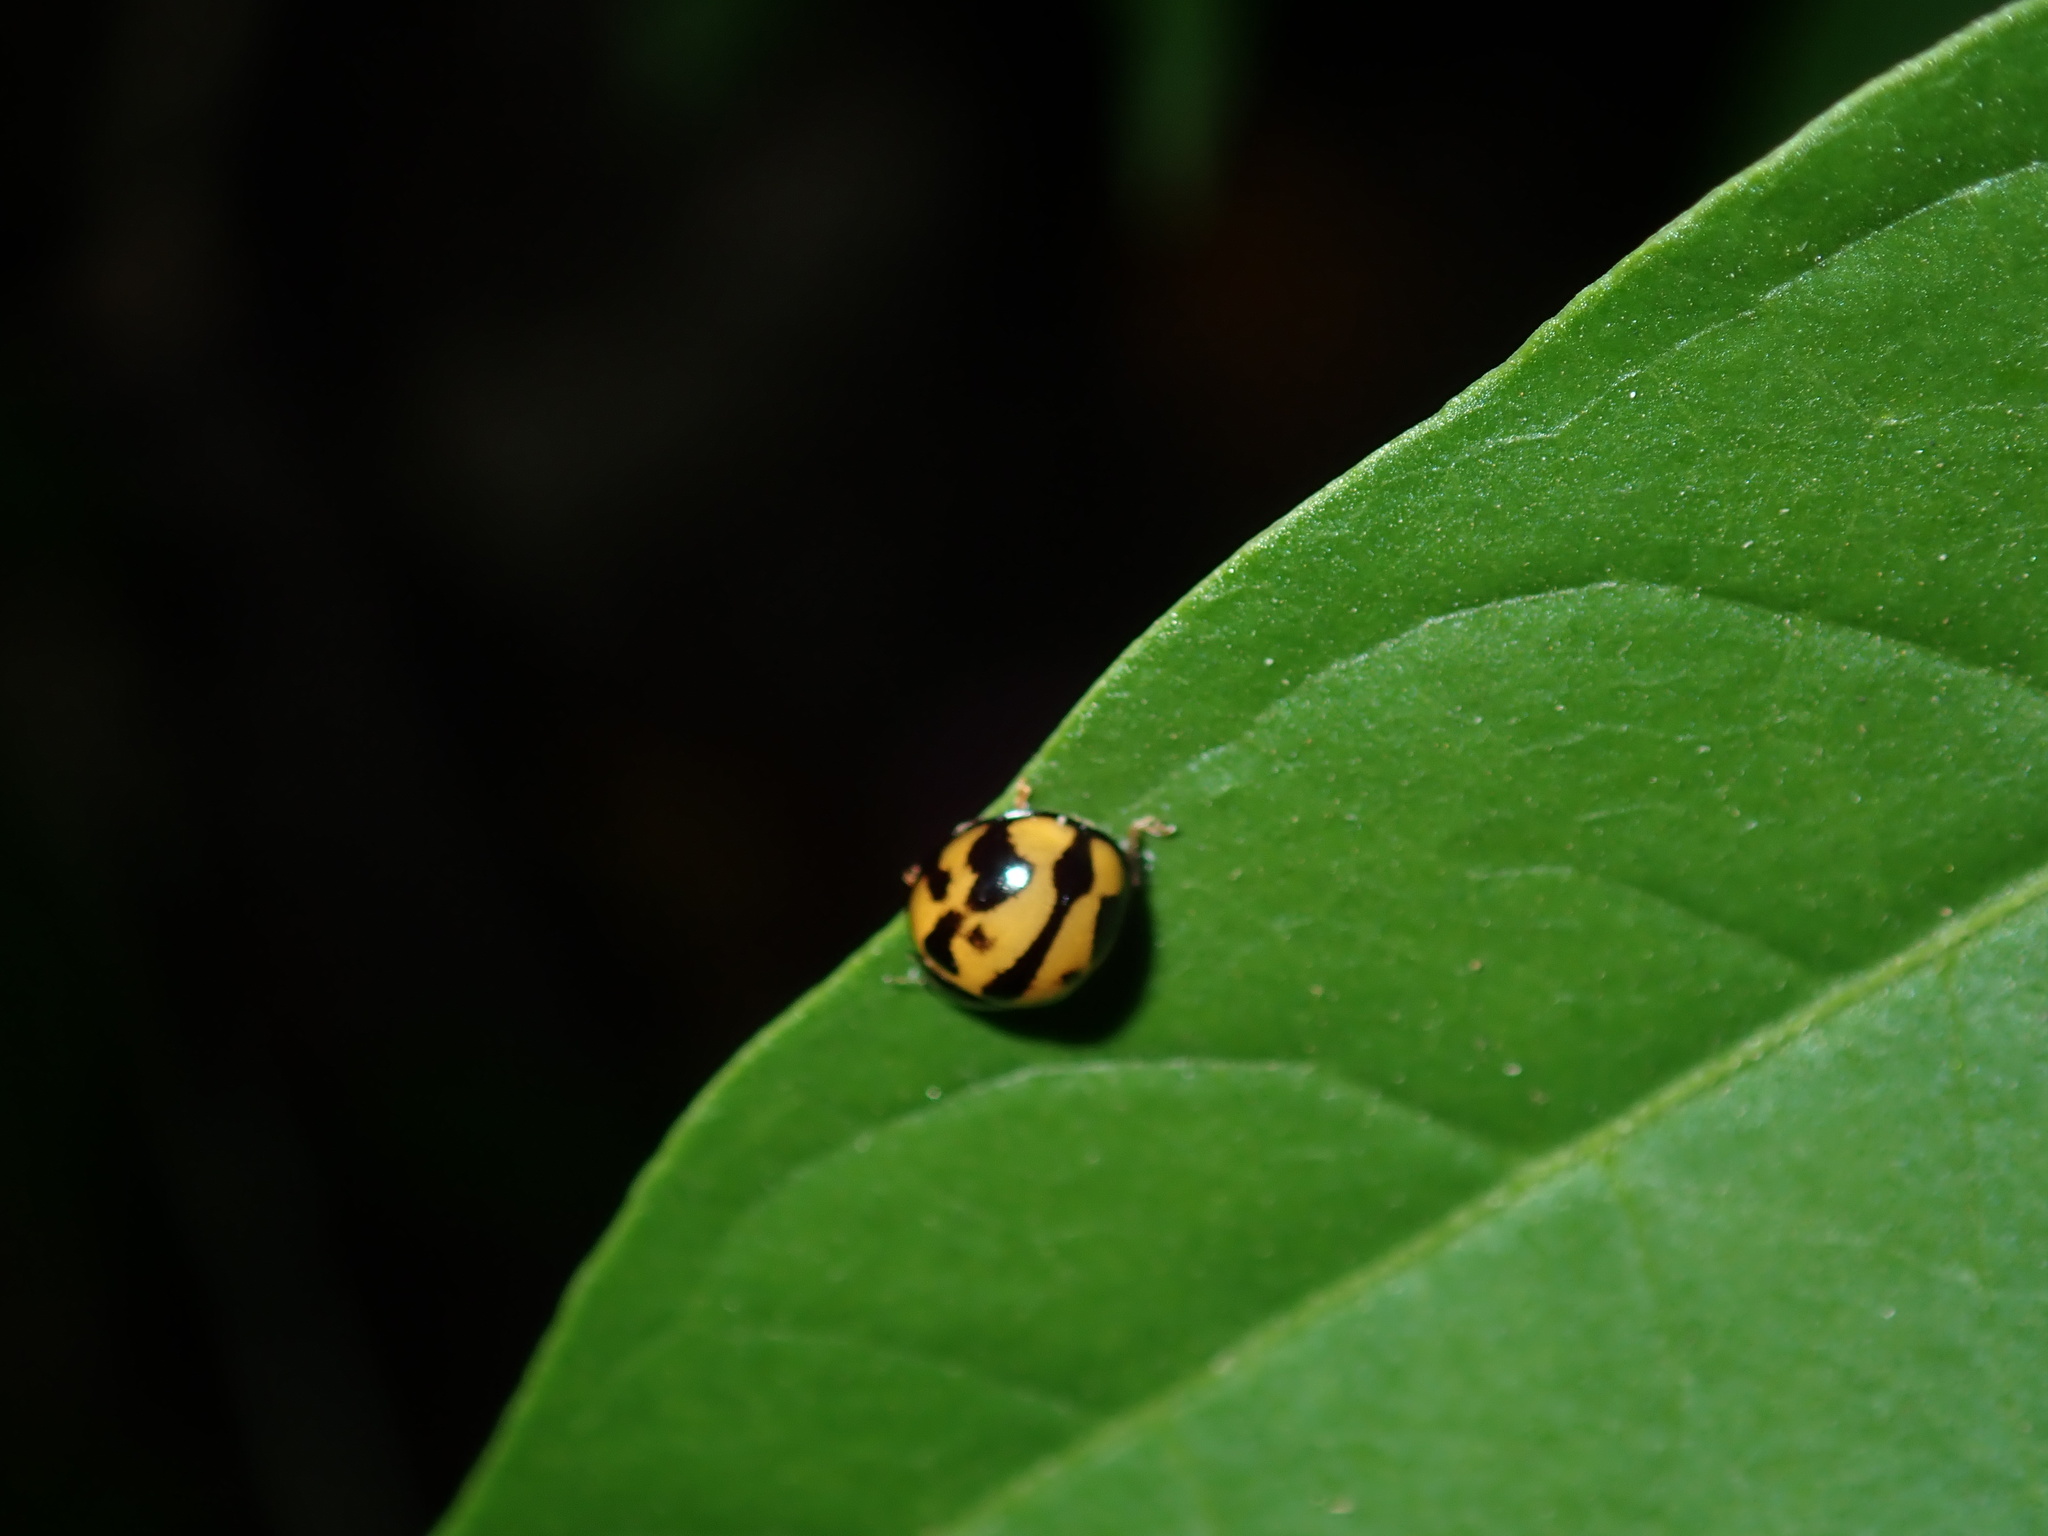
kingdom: Animalia
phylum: Arthropoda
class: Insecta
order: Coleoptera
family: Coccinellidae
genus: Coelophora
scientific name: Coelophora inaequalis
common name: Common australian lady beetle
